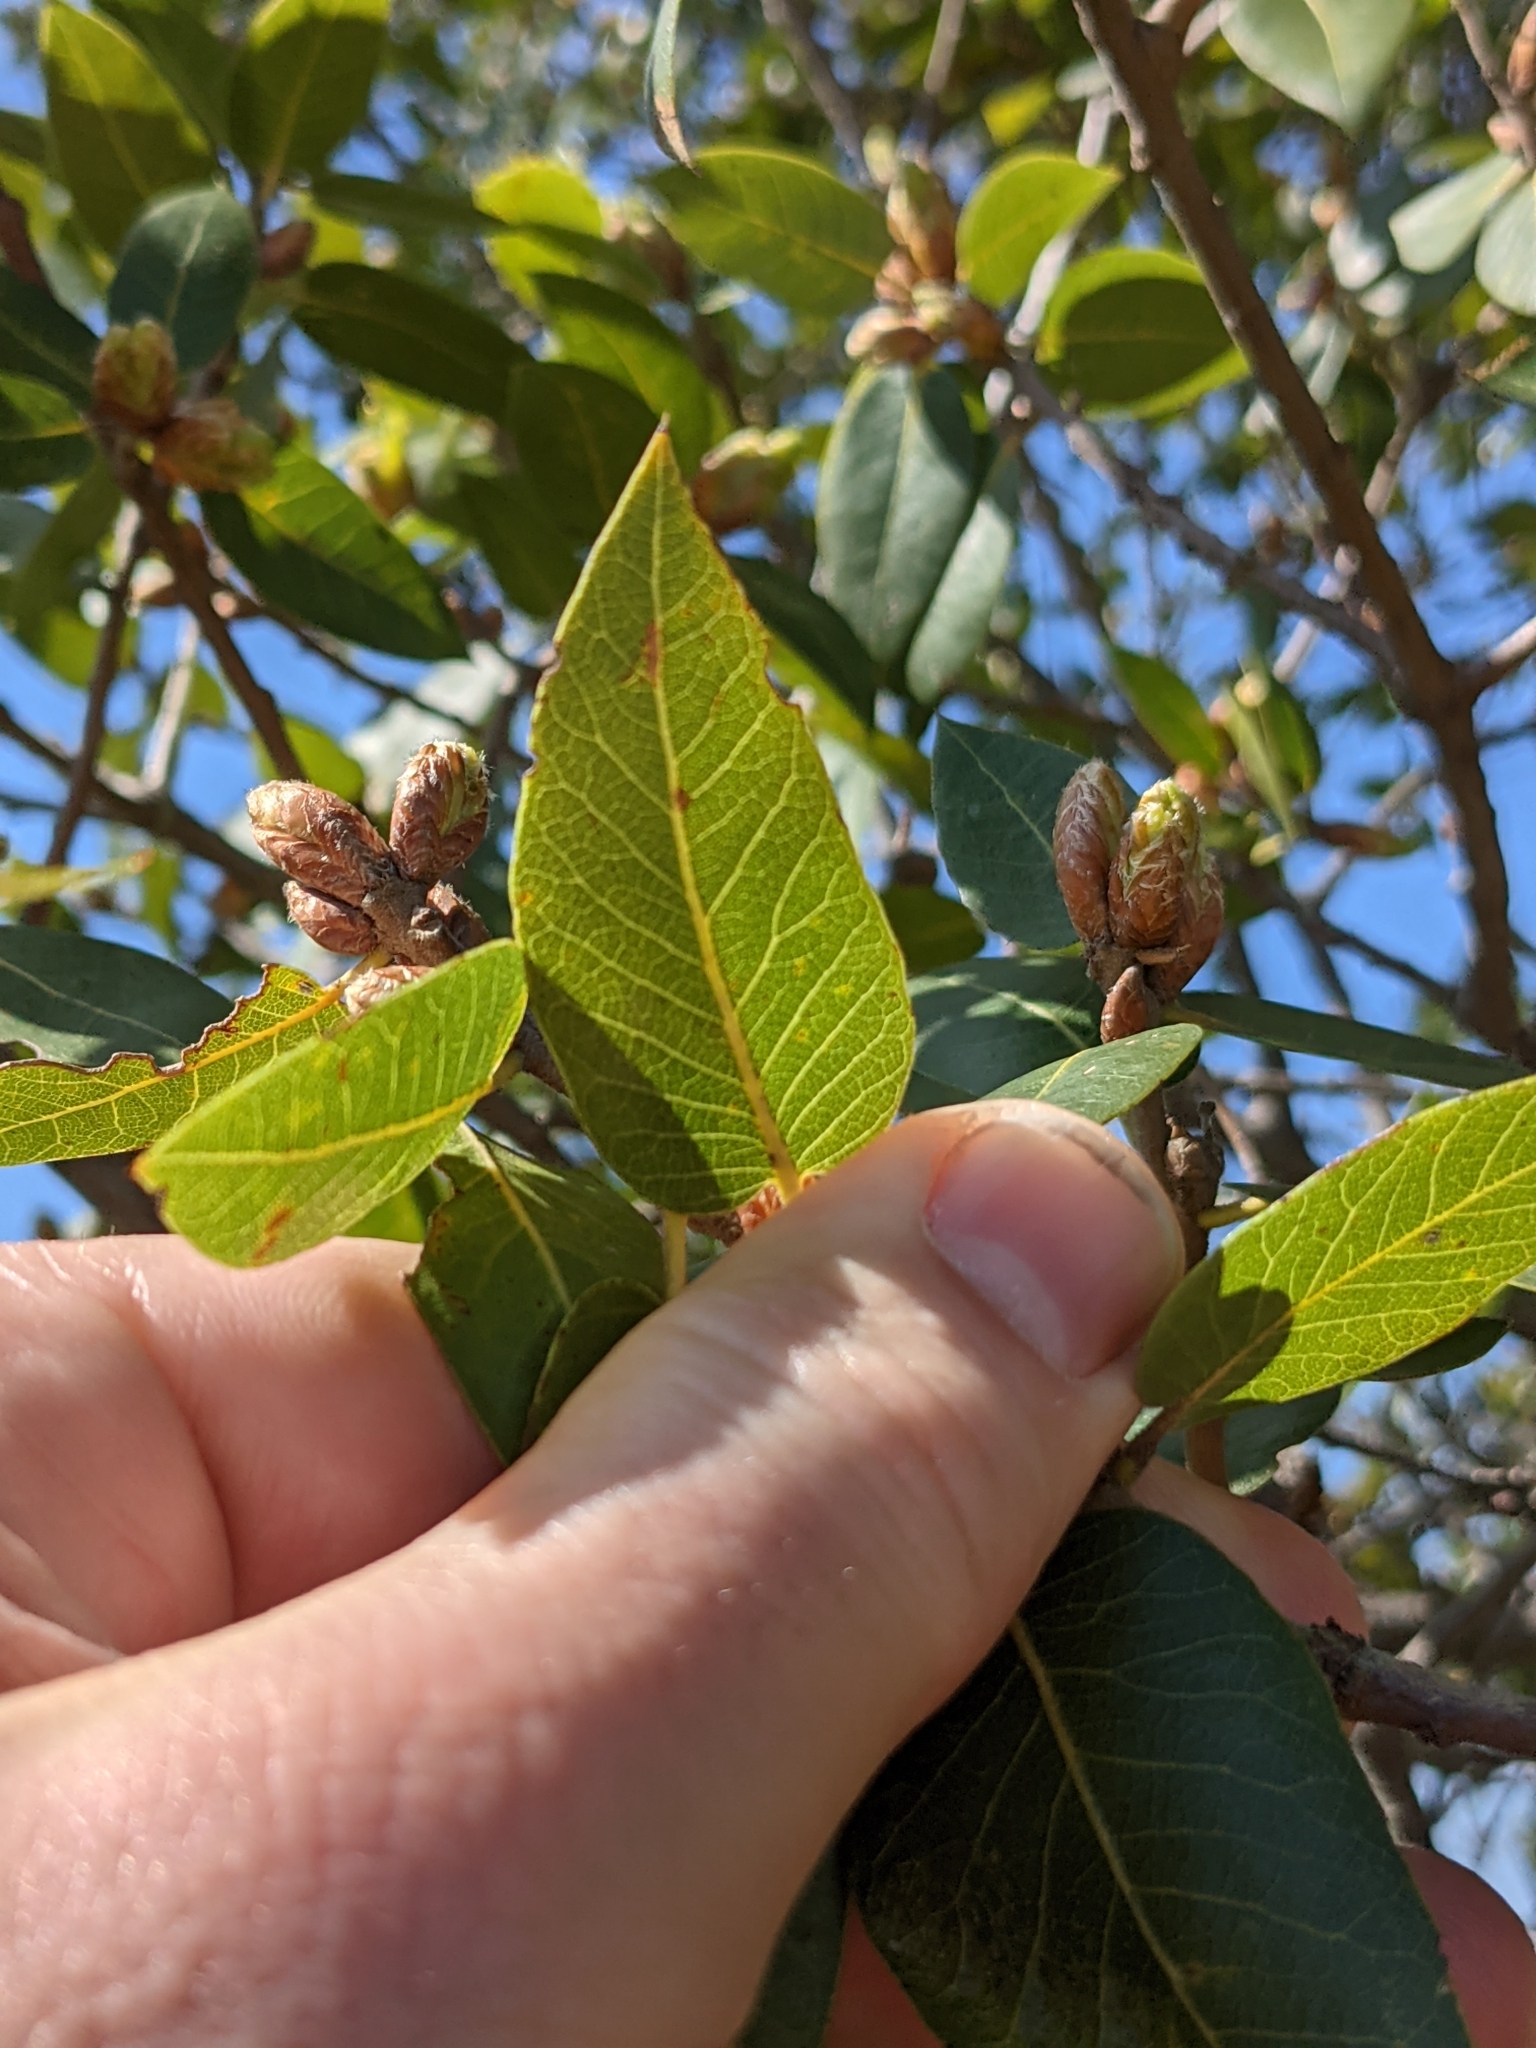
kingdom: Plantae
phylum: Tracheophyta
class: Magnoliopsida
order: Fagales
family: Fagaceae
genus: Quercus
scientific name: Quercus wislizeni
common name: Interior live oak
